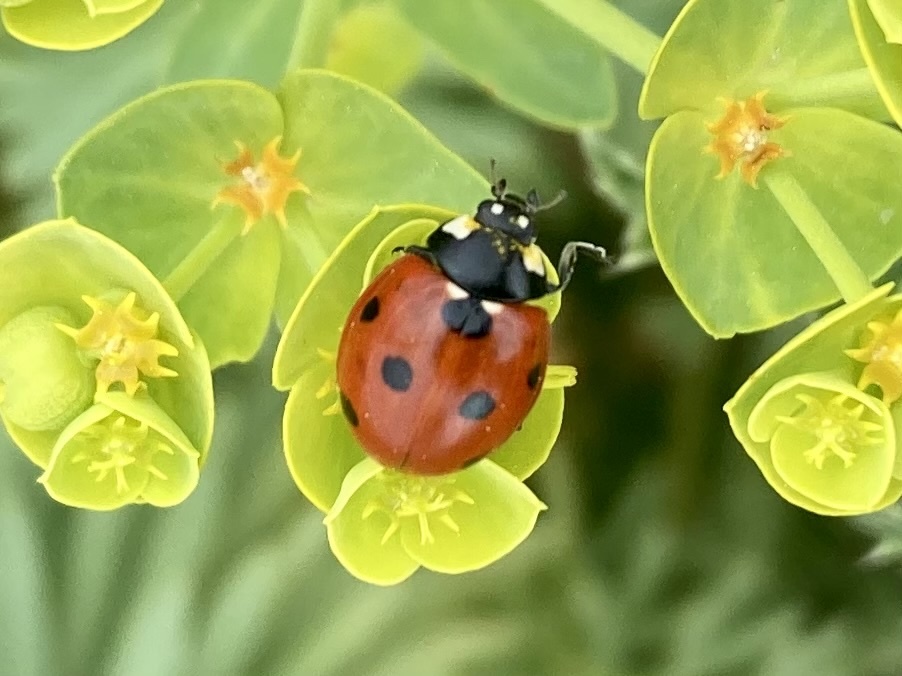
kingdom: Animalia
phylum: Arthropoda
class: Insecta
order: Coleoptera
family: Coccinellidae
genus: Coccinella
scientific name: Coccinella septempunctata
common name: Sevenspotted lady beetle
